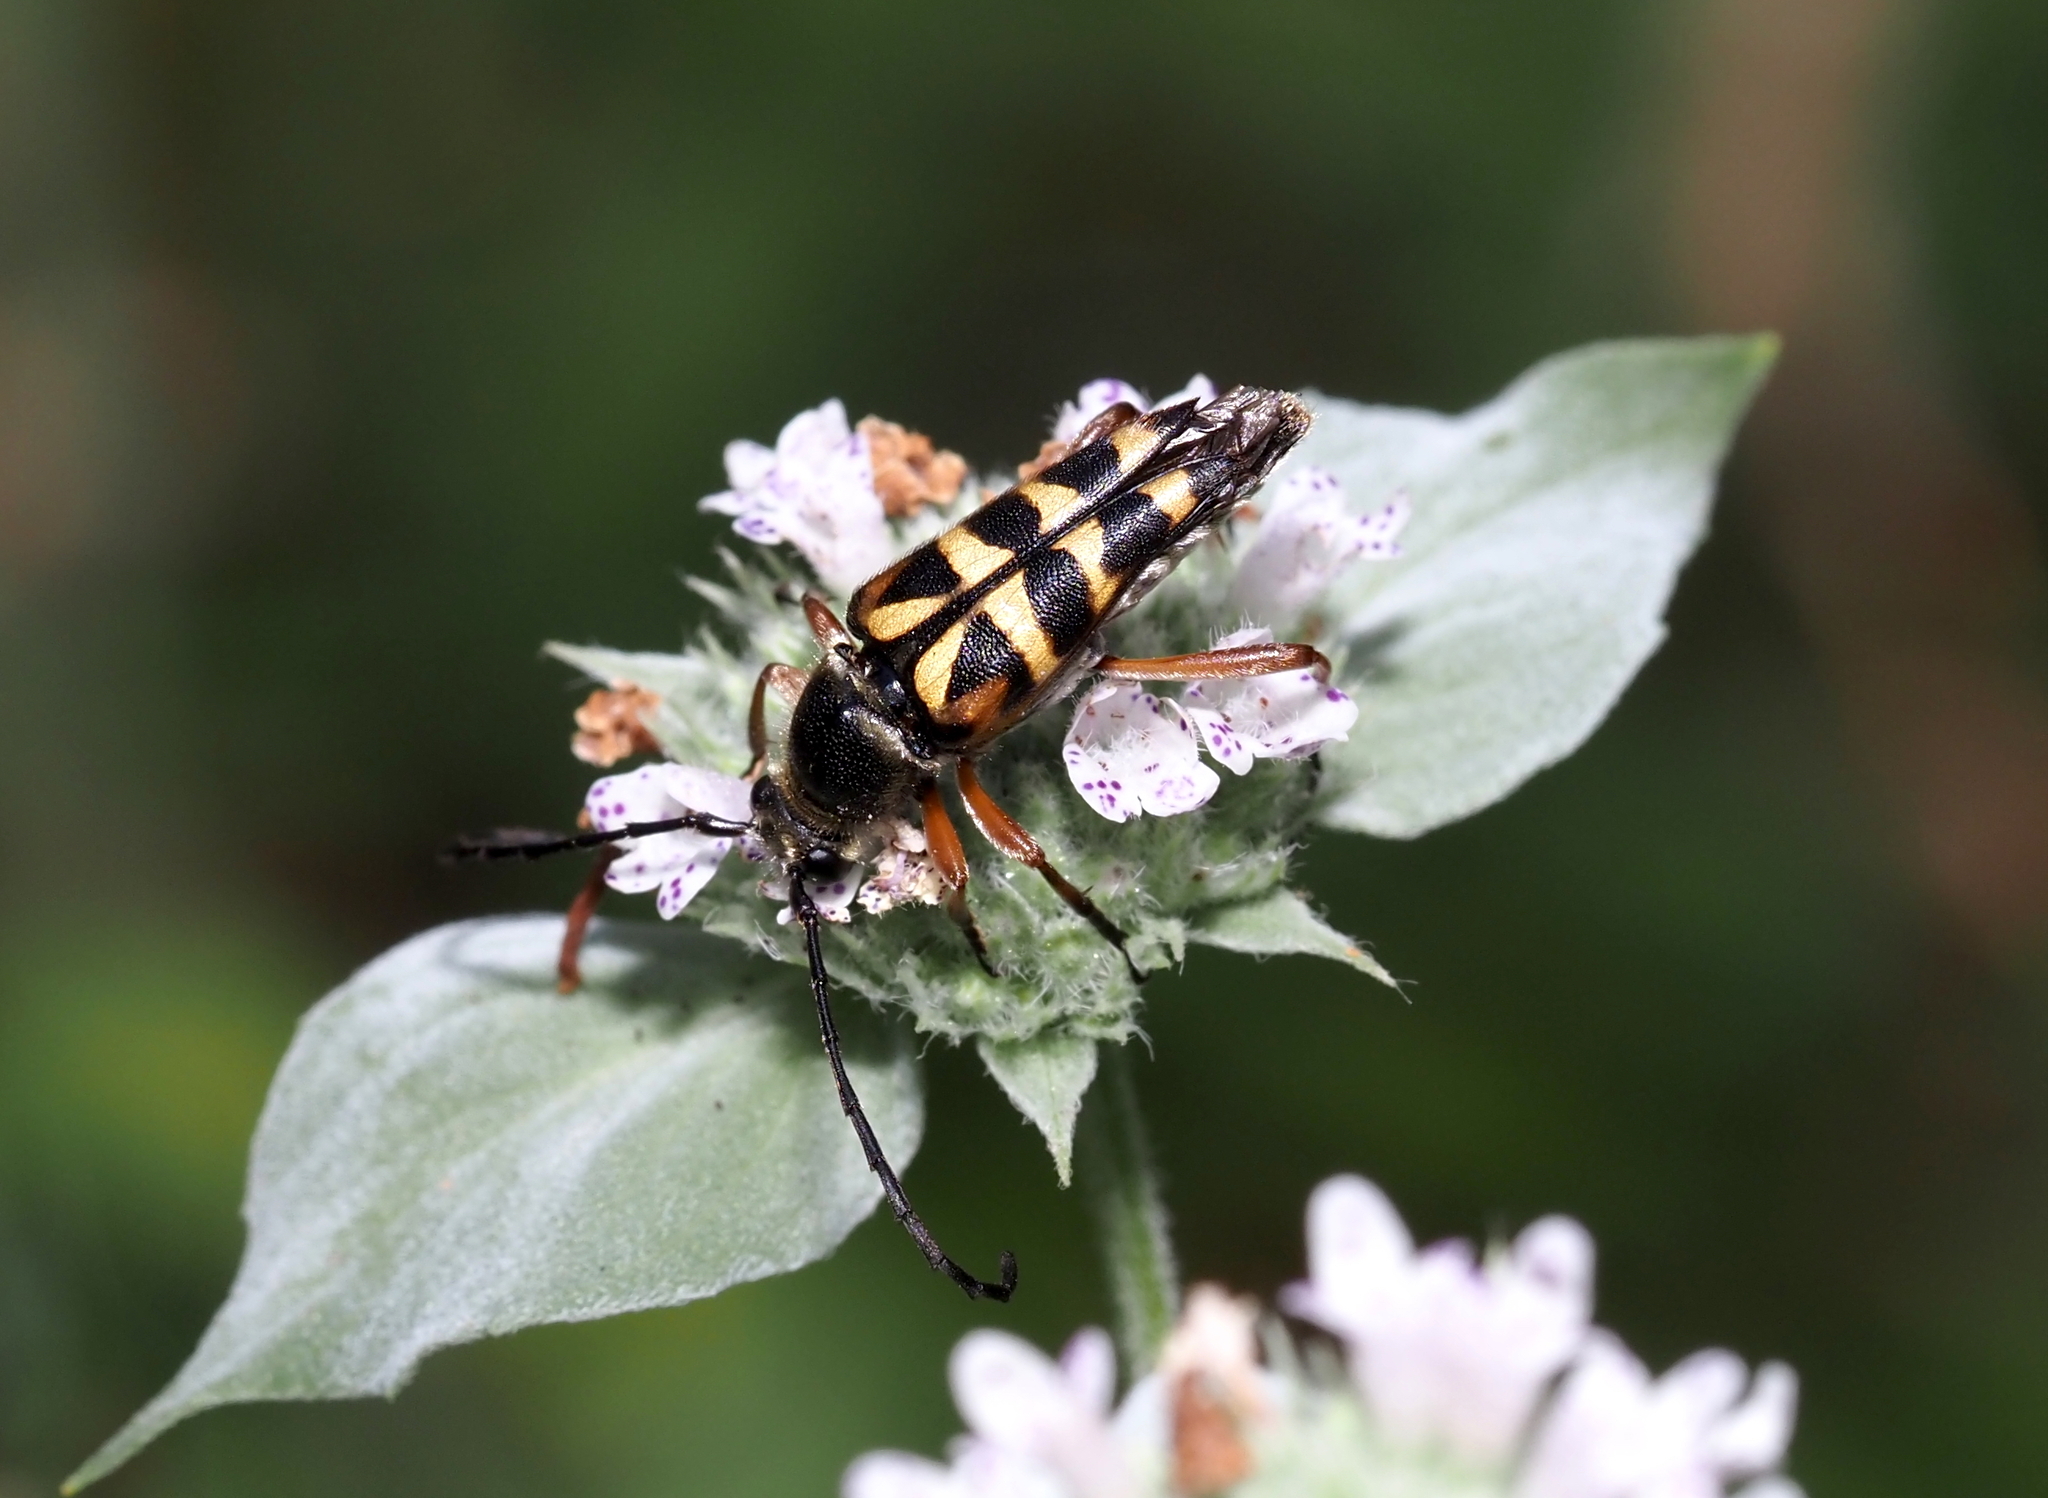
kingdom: Animalia
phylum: Arthropoda
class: Insecta
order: Coleoptera
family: Cerambycidae
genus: Typocerus
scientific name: Typocerus zebra
